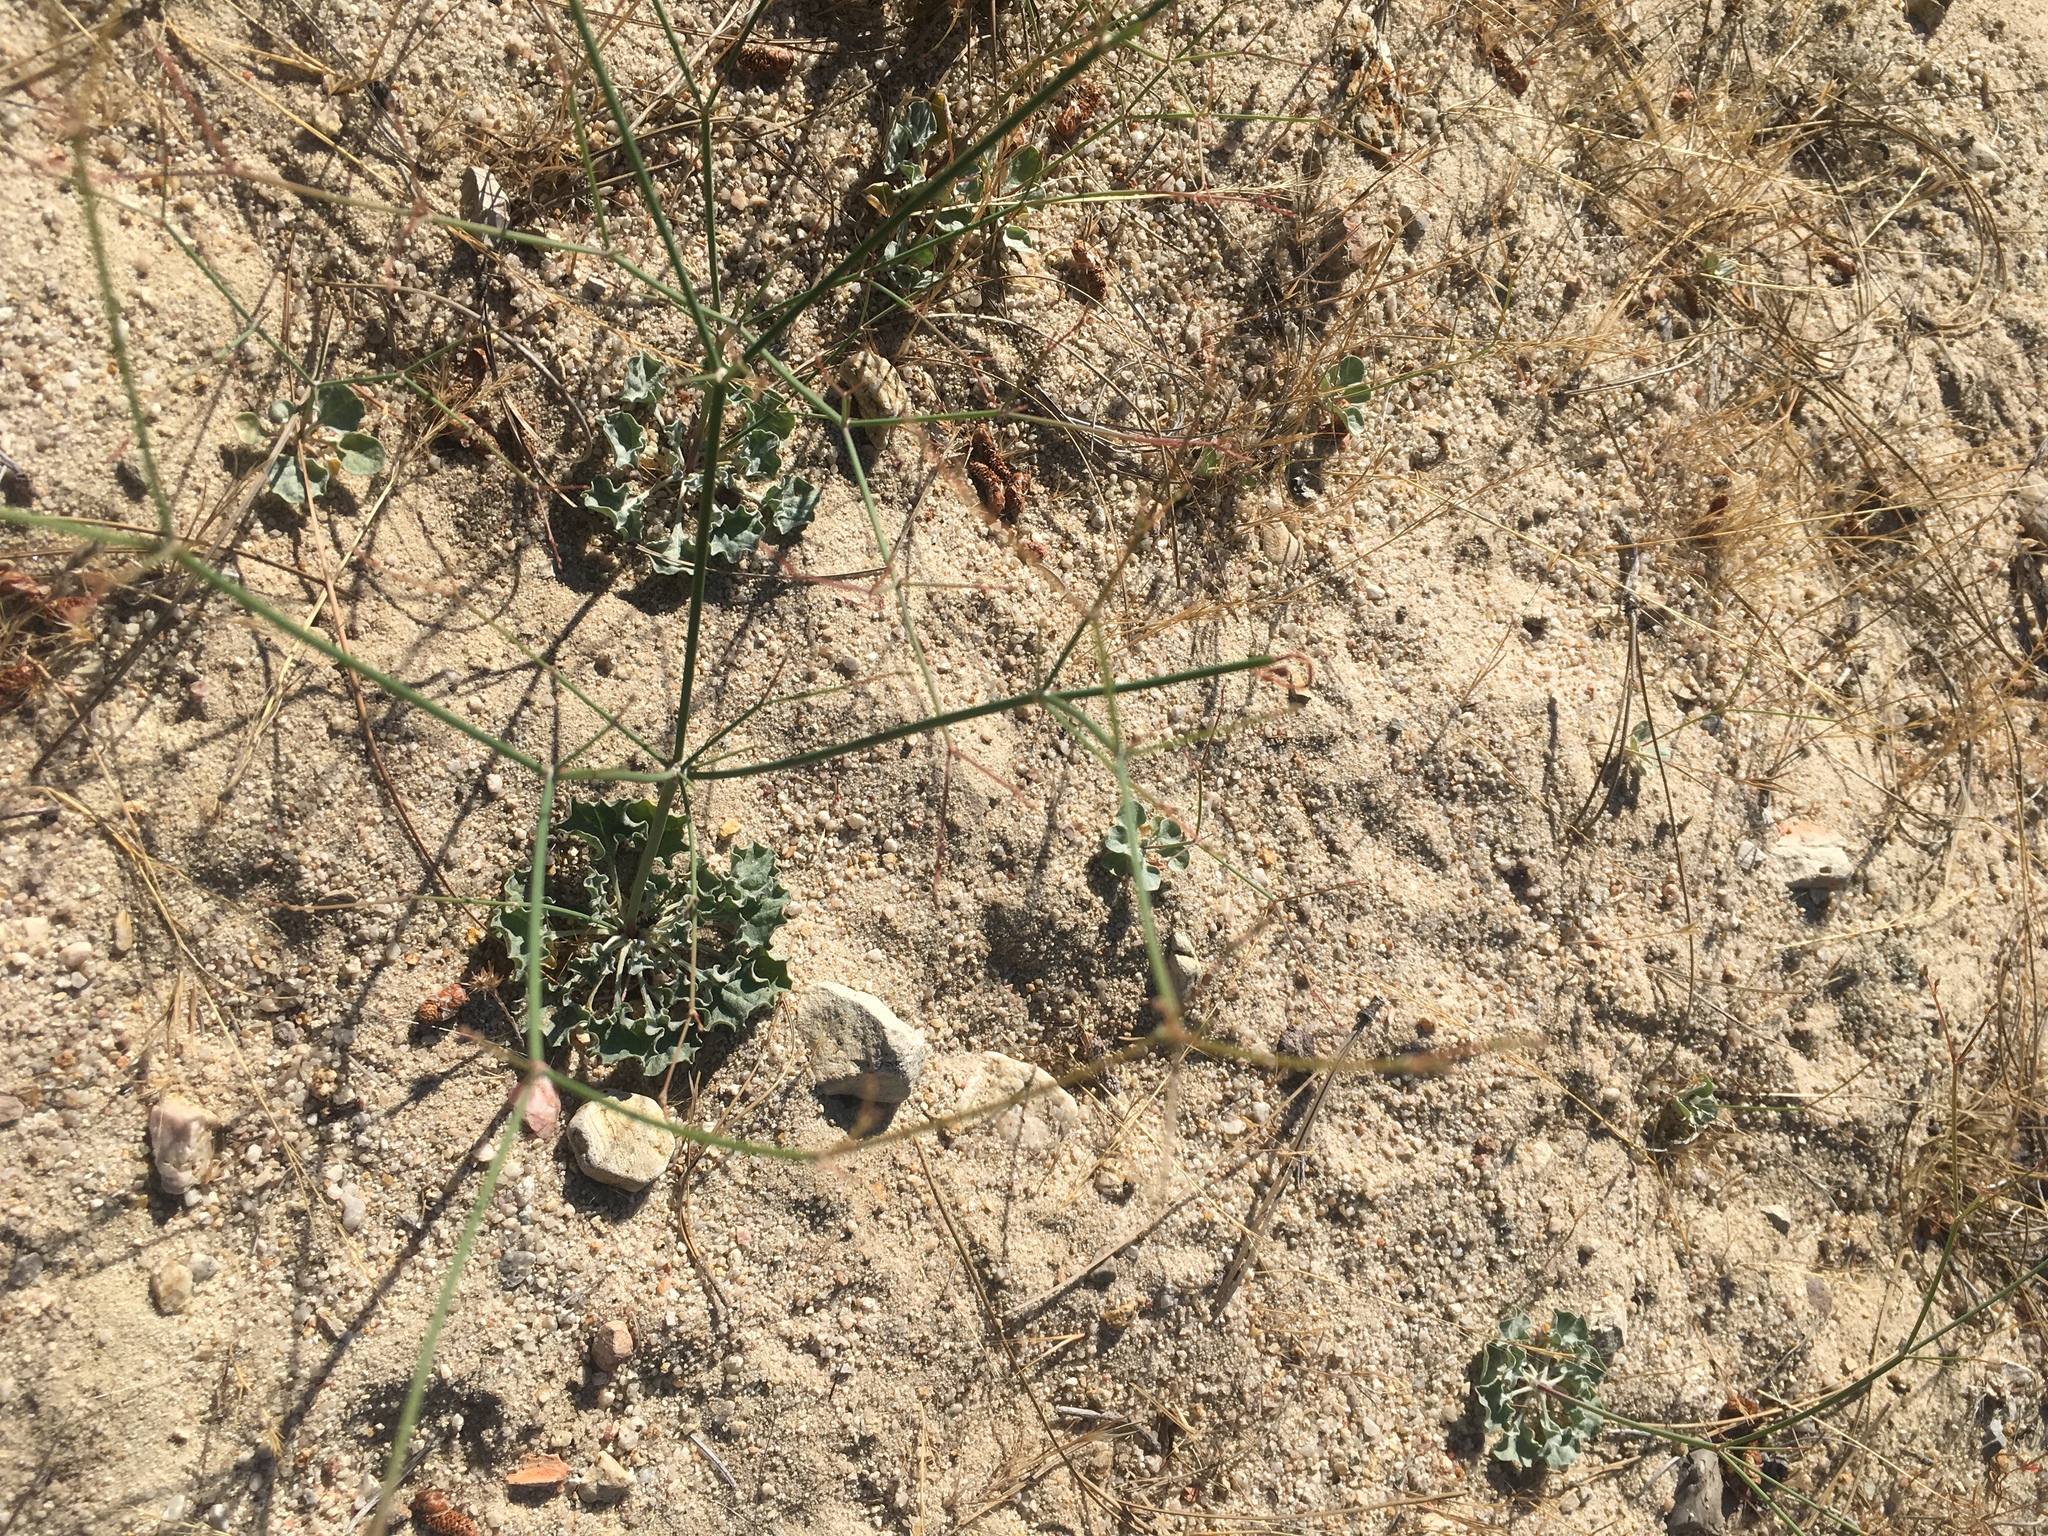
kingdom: Plantae
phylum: Tracheophyta
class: Magnoliopsida
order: Caryophyllales
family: Polygonaceae
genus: Eriogonum
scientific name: Eriogonum elegans
